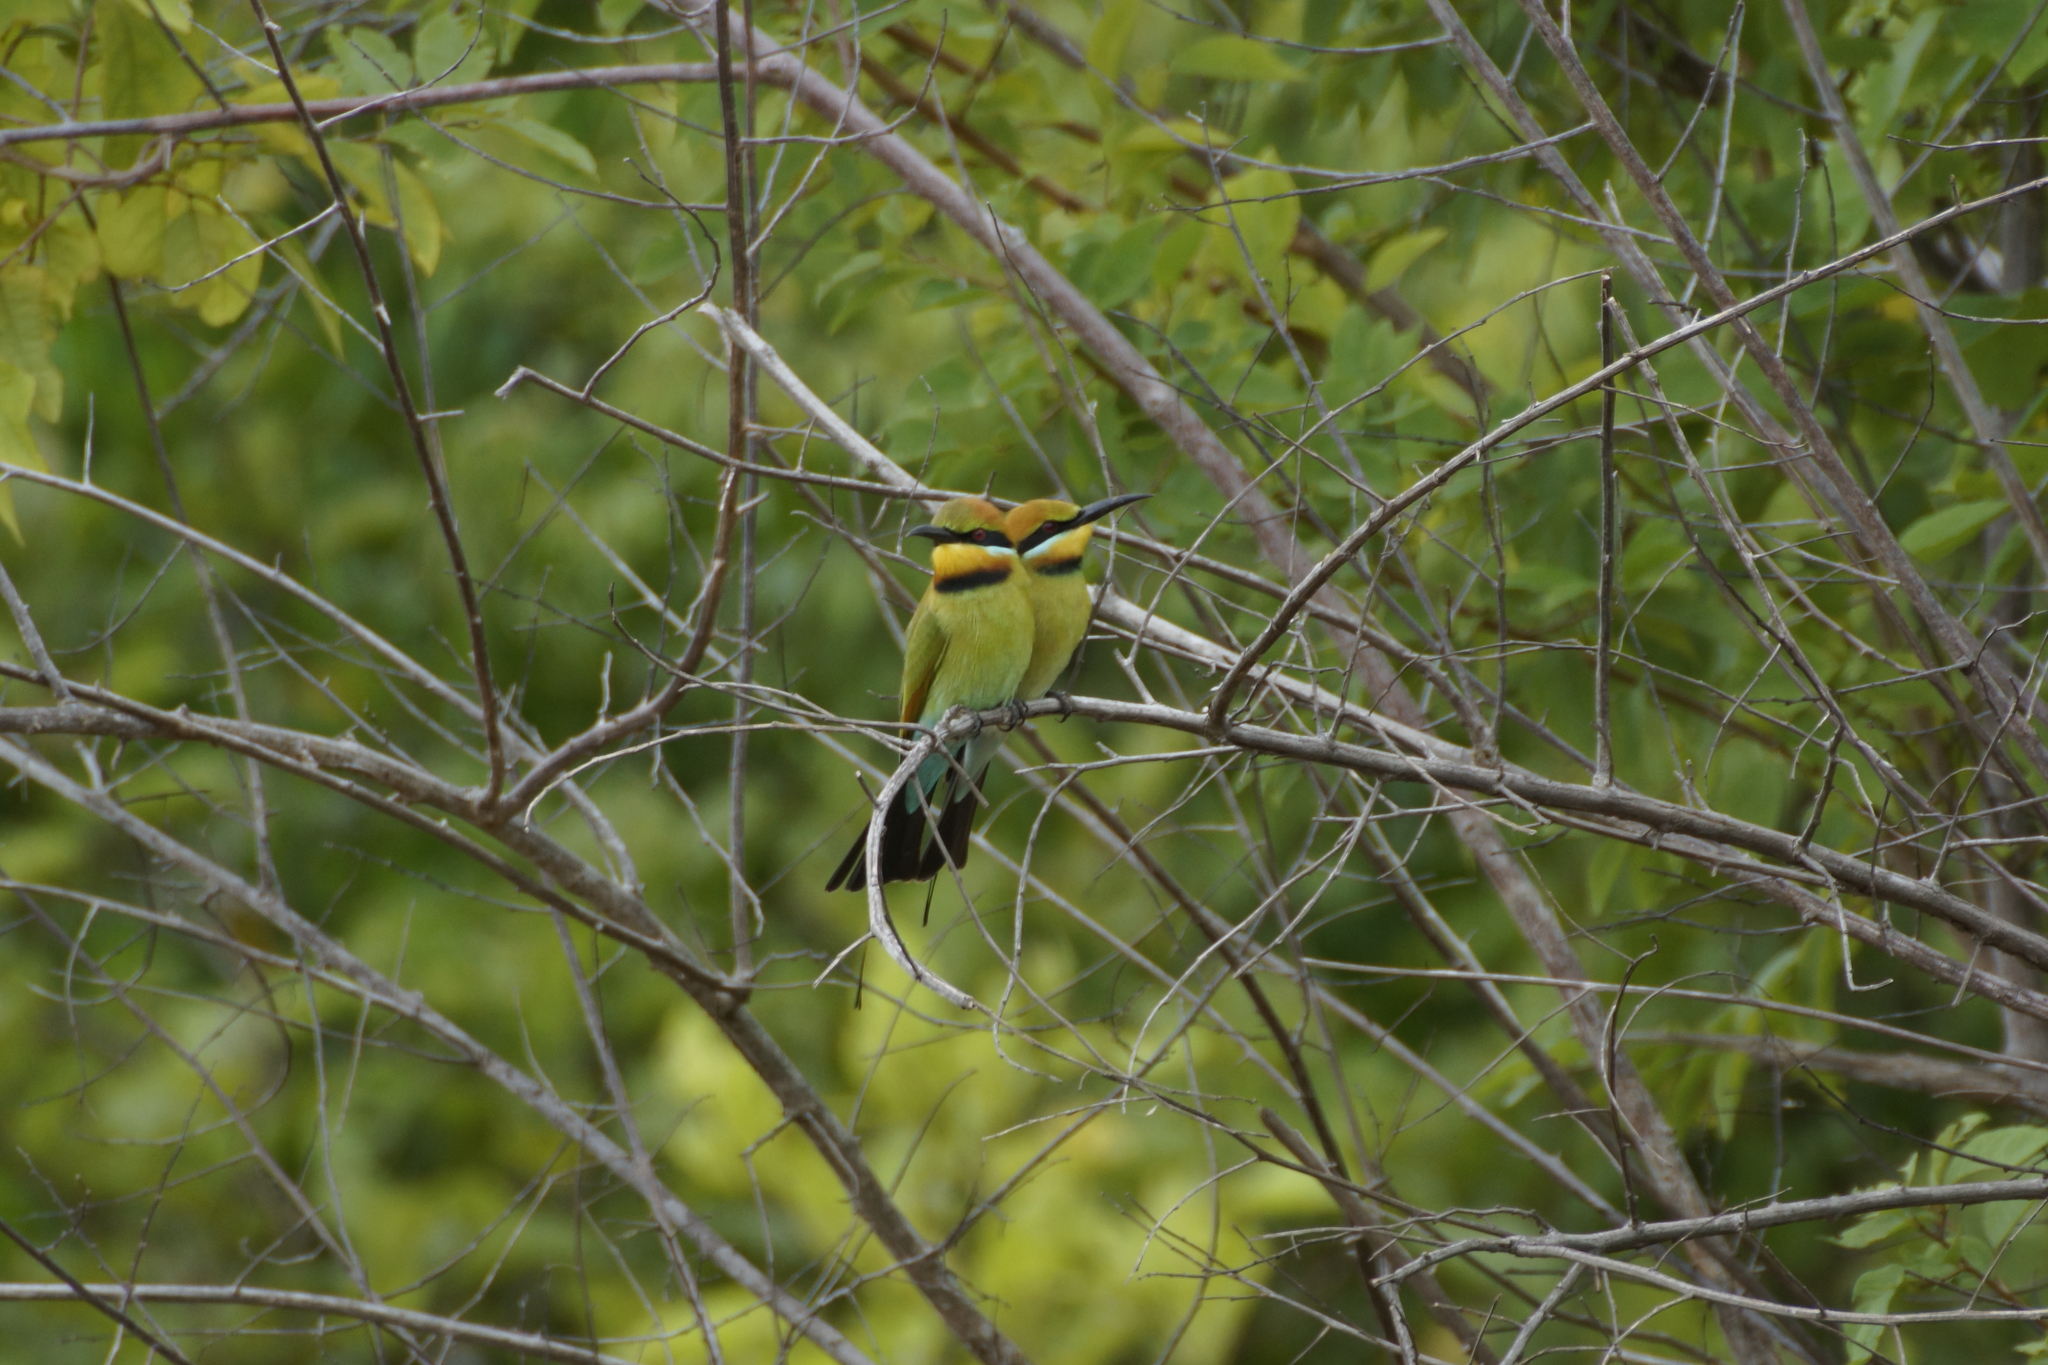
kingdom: Animalia
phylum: Chordata
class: Aves
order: Coraciiformes
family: Meropidae
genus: Merops
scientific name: Merops ornatus
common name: Rainbow bee-eater
